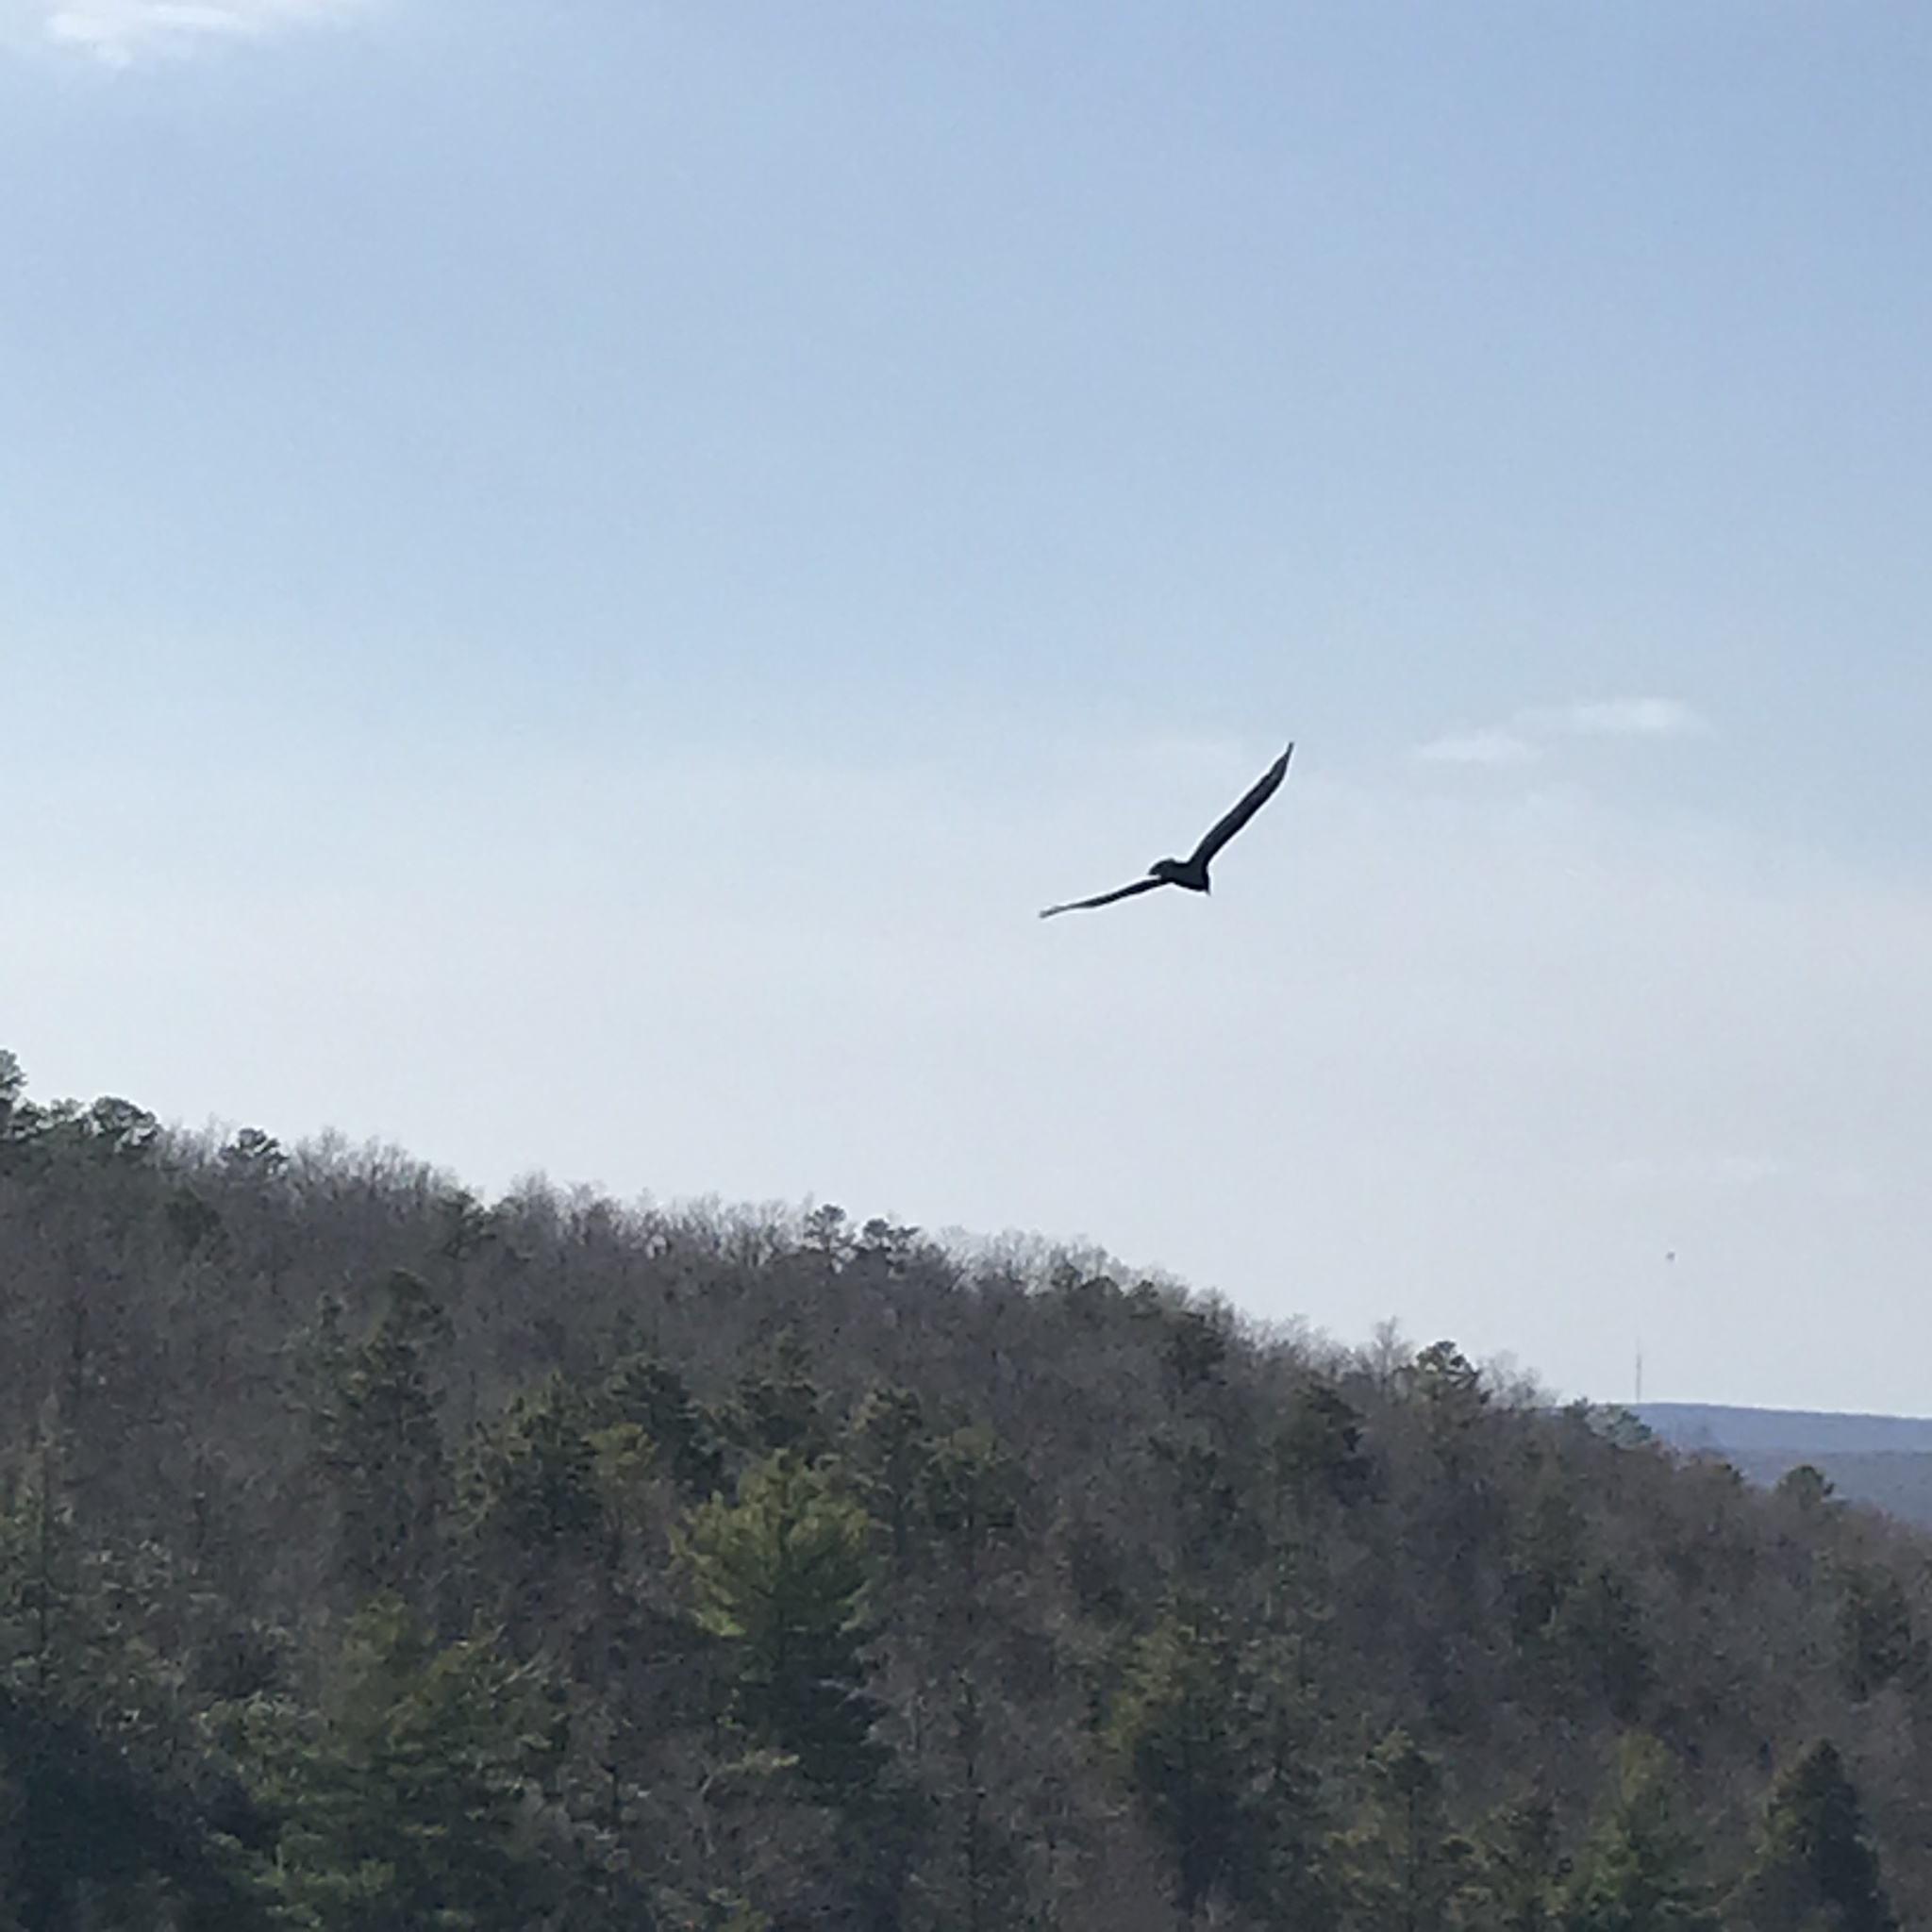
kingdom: Animalia
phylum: Chordata
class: Aves
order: Accipitriformes
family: Cathartidae
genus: Cathartes
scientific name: Cathartes aura
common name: Turkey vulture
